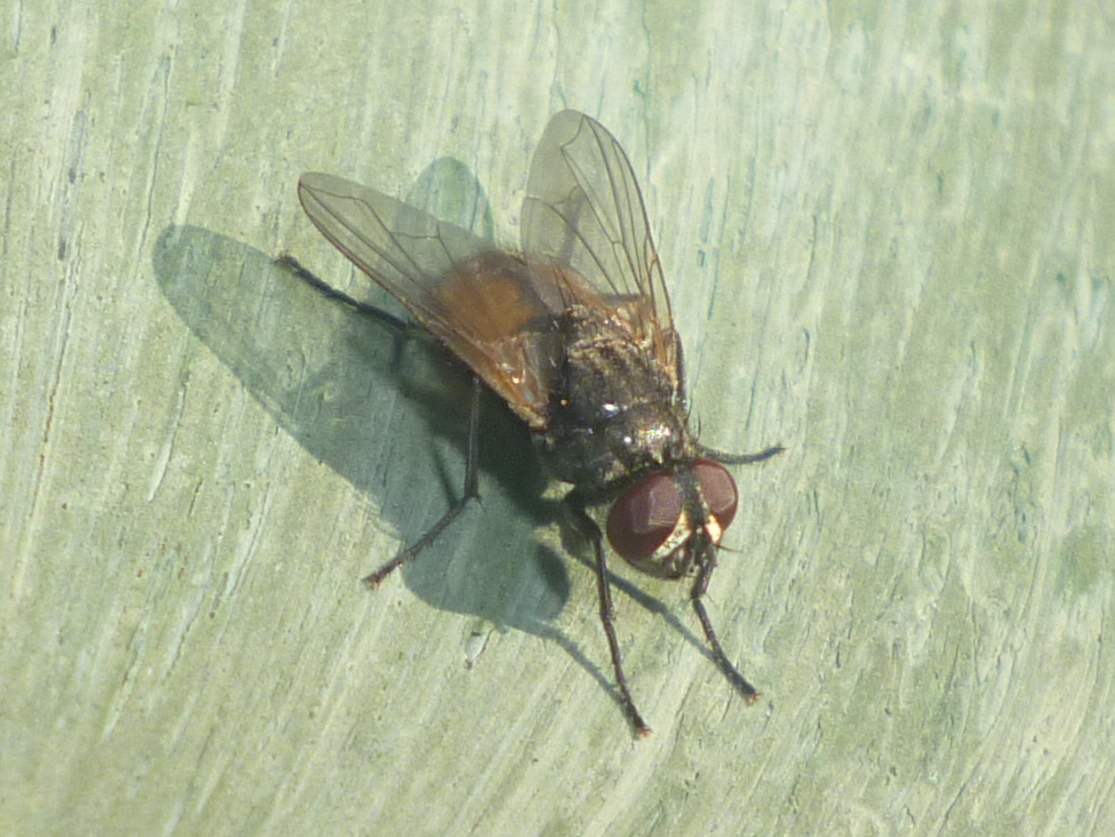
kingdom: Animalia
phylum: Arthropoda
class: Insecta
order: Diptera
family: Muscidae
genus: Musca
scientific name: Musca domestica
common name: House fly
